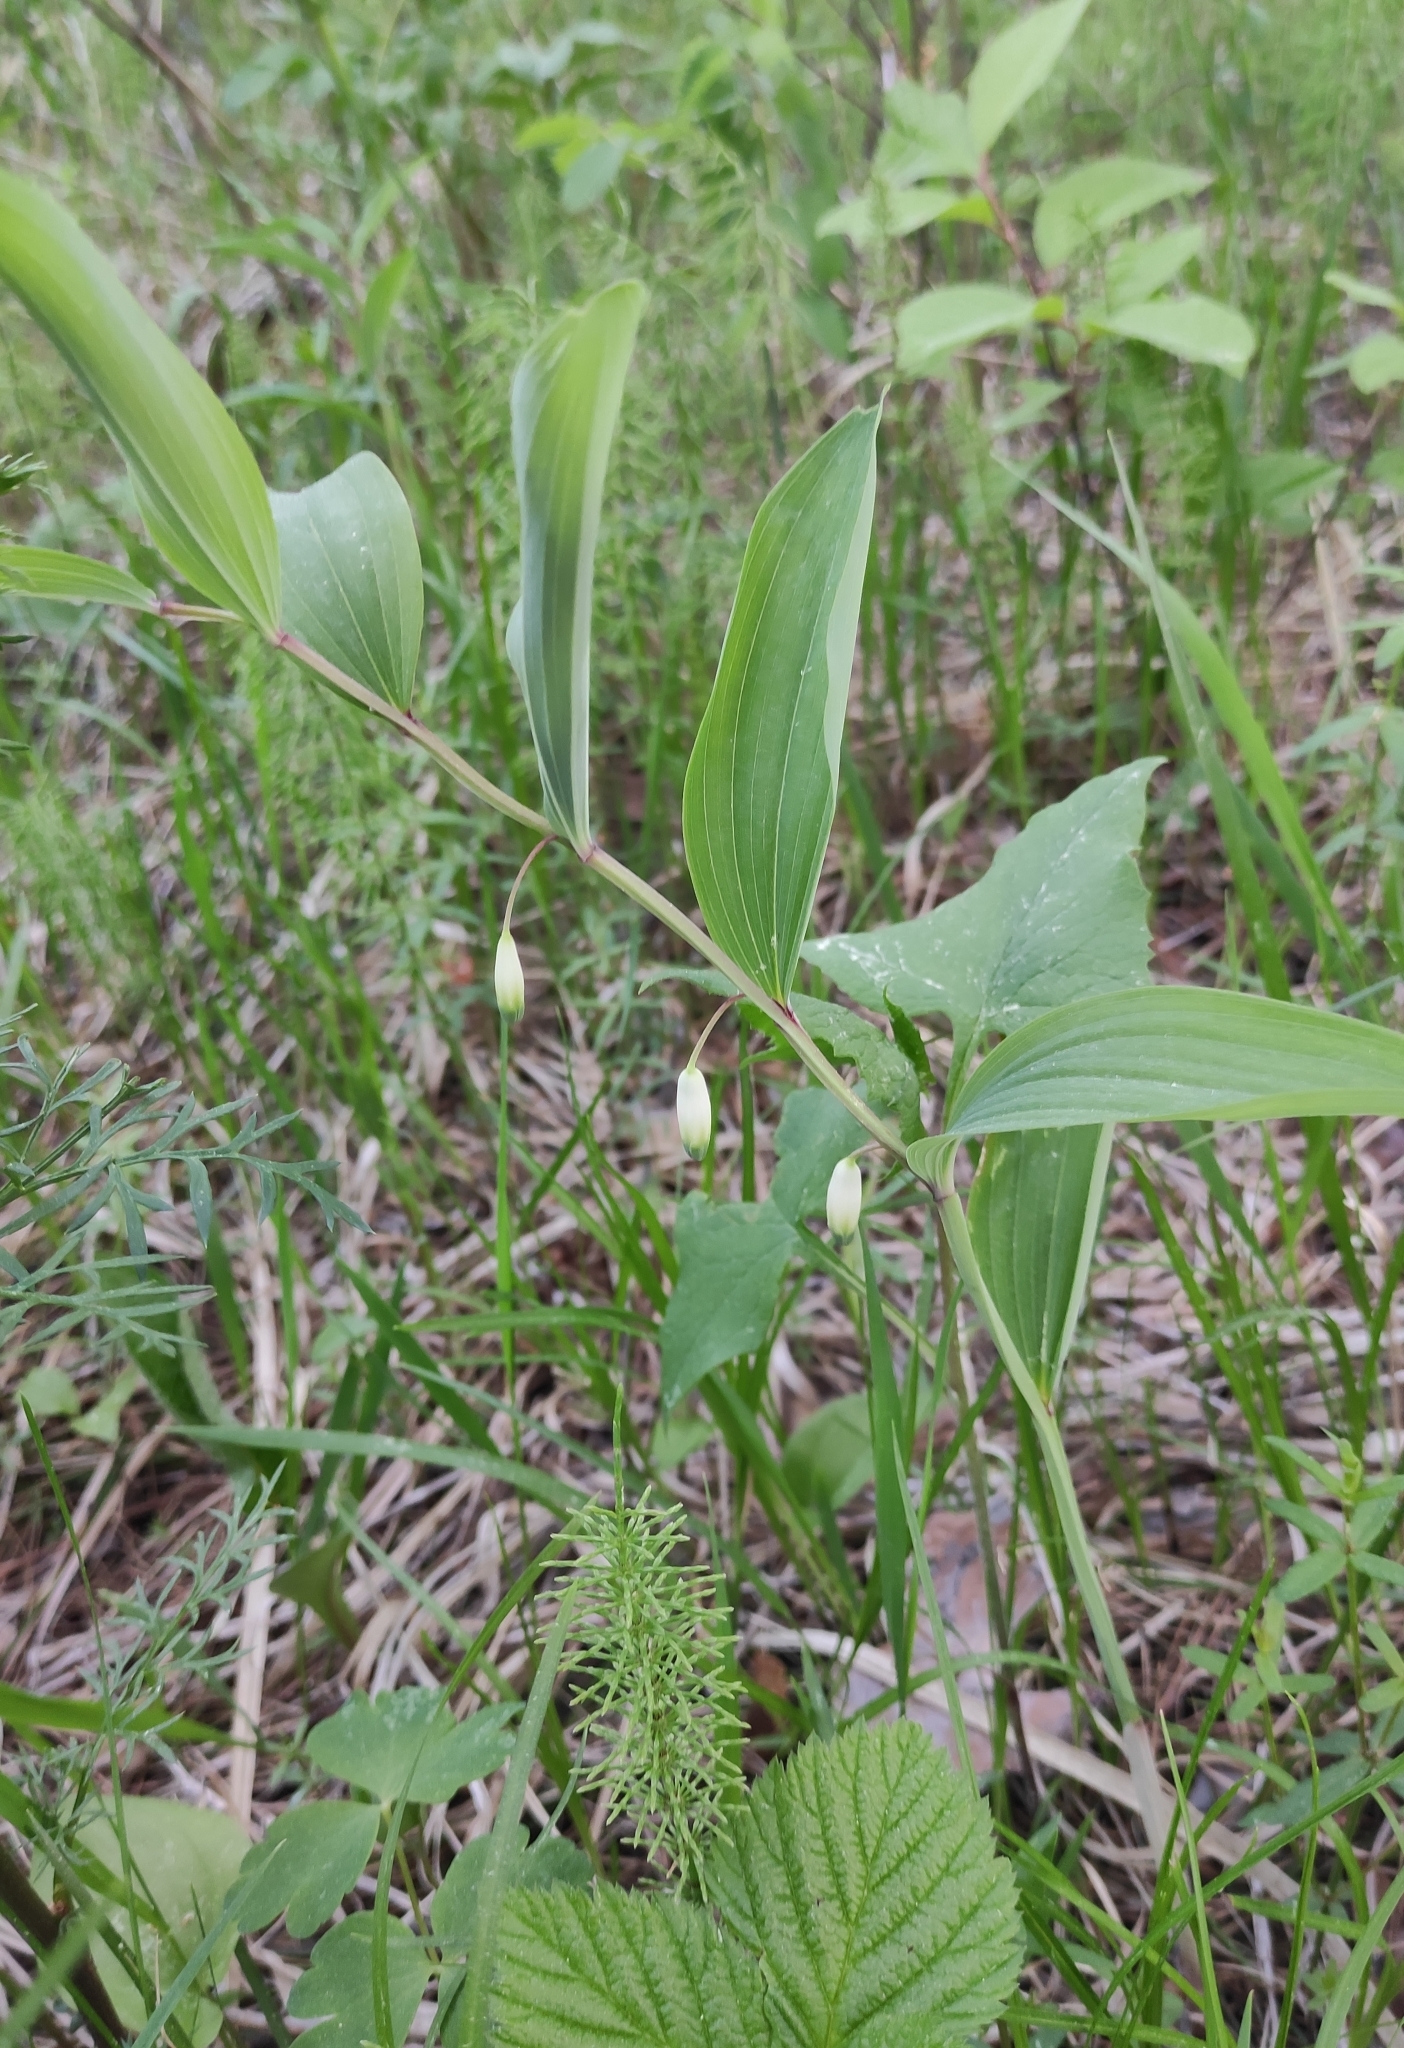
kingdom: Plantae
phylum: Tracheophyta
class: Liliopsida
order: Asparagales
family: Asparagaceae
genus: Polygonatum
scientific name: Polygonatum odoratum
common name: Angular solomon's-seal
